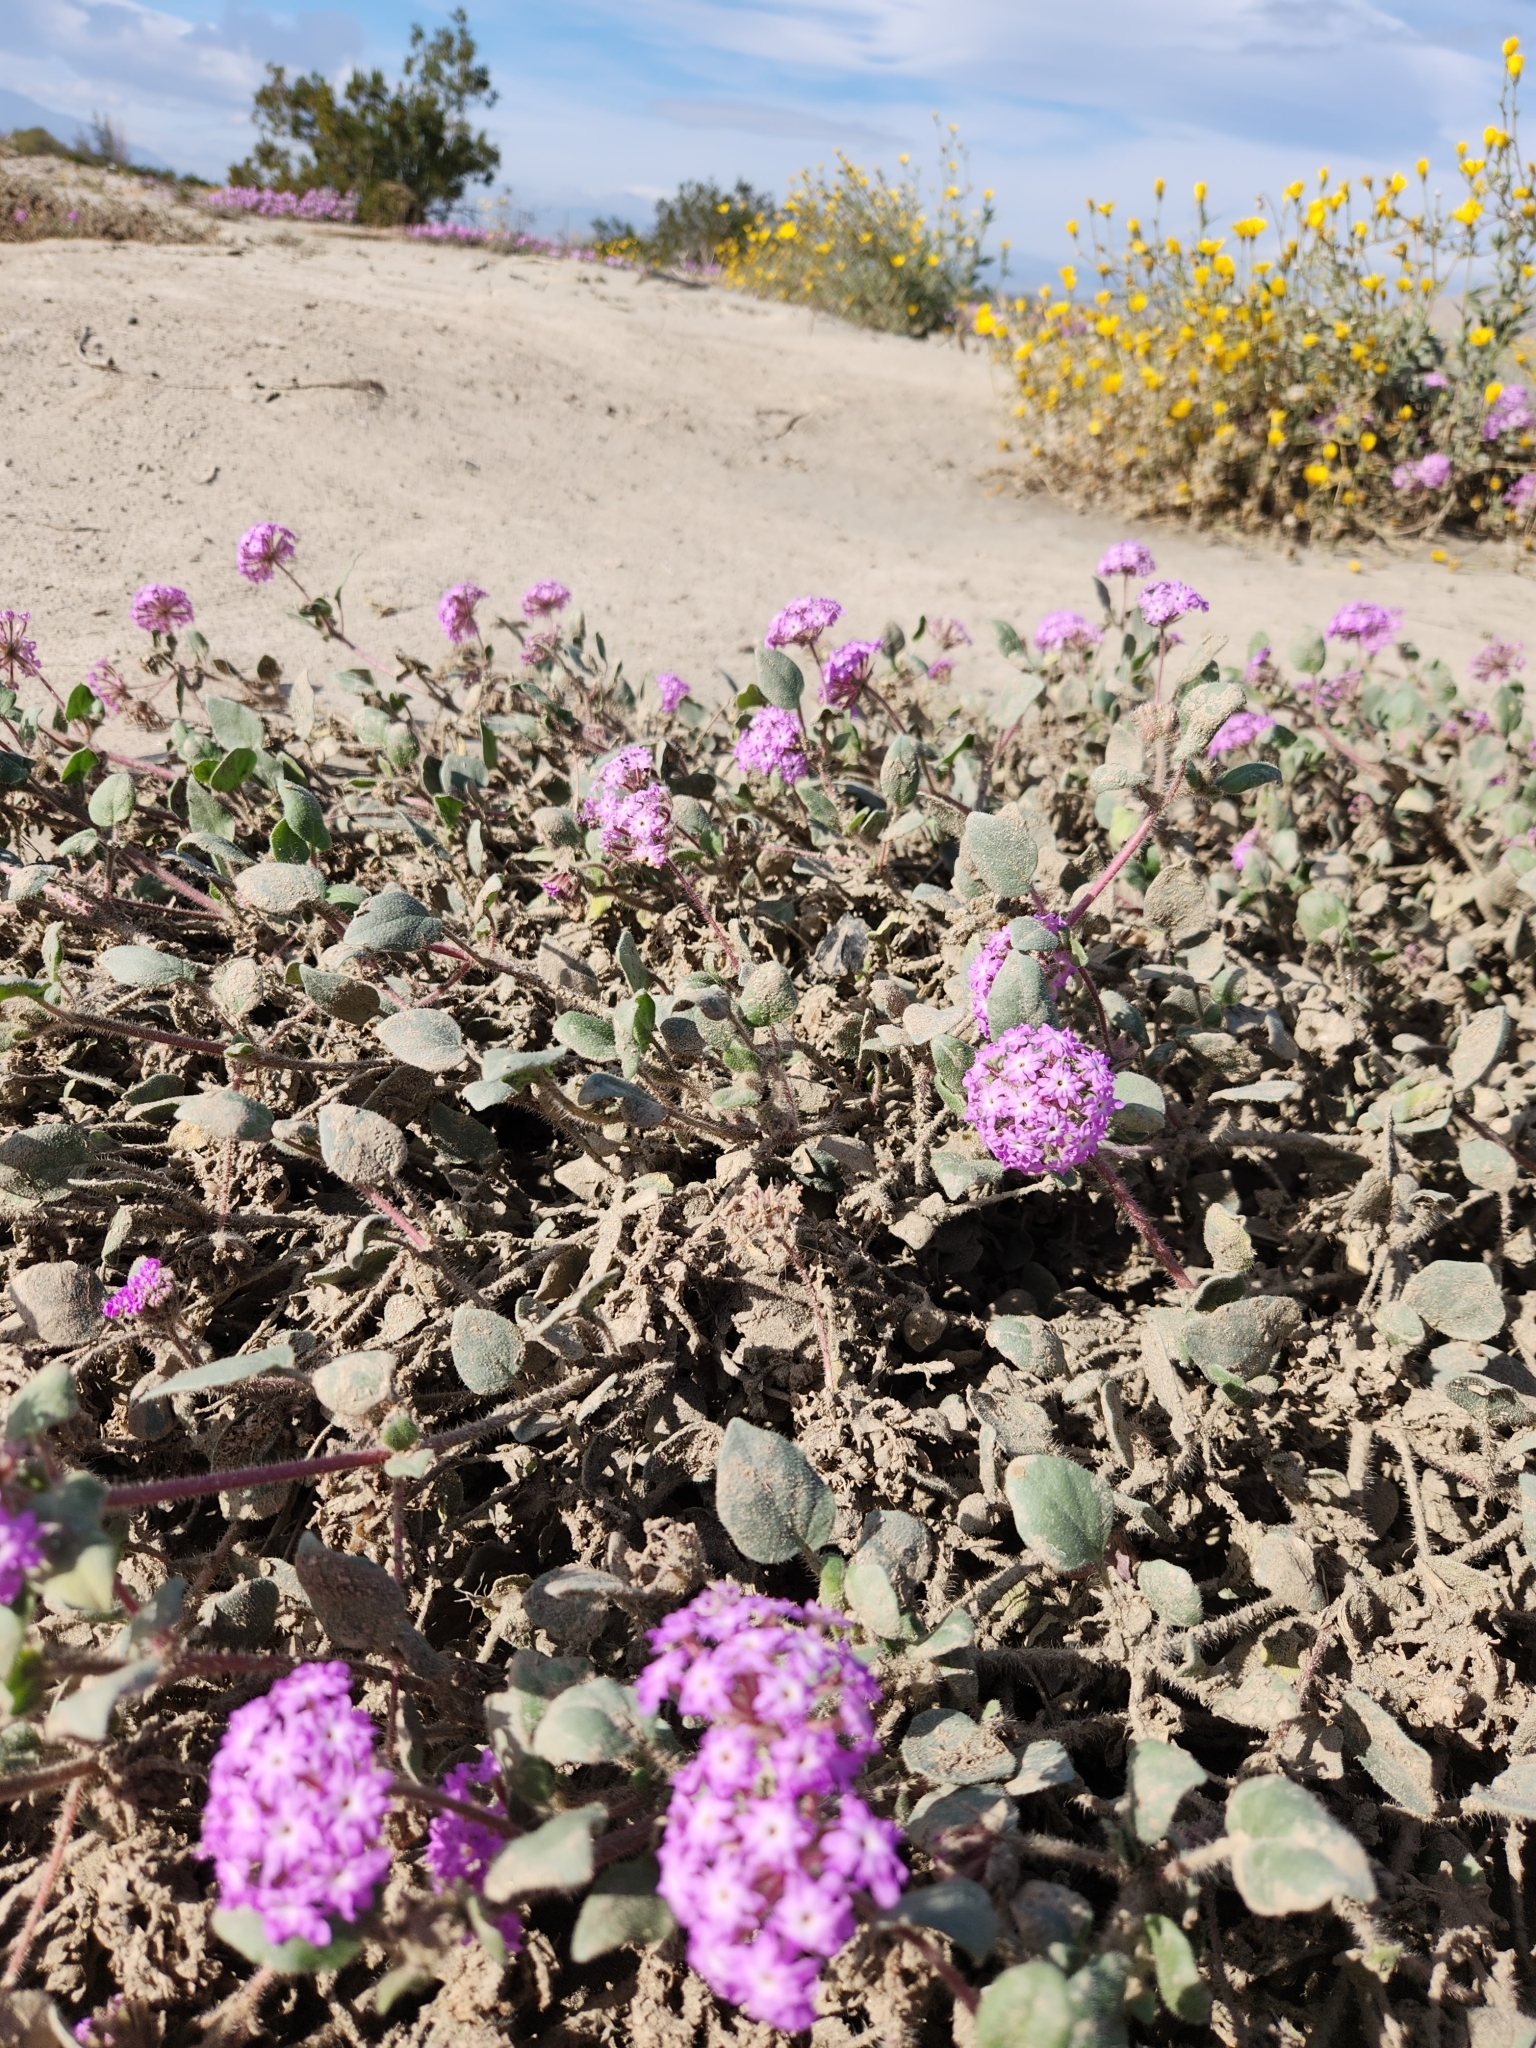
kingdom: Plantae
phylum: Tracheophyta
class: Magnoliopsida
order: Caryophyllales
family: Nyctaginaceae
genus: Abronia
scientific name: Abronia villosa
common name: Desert sand-verbena
